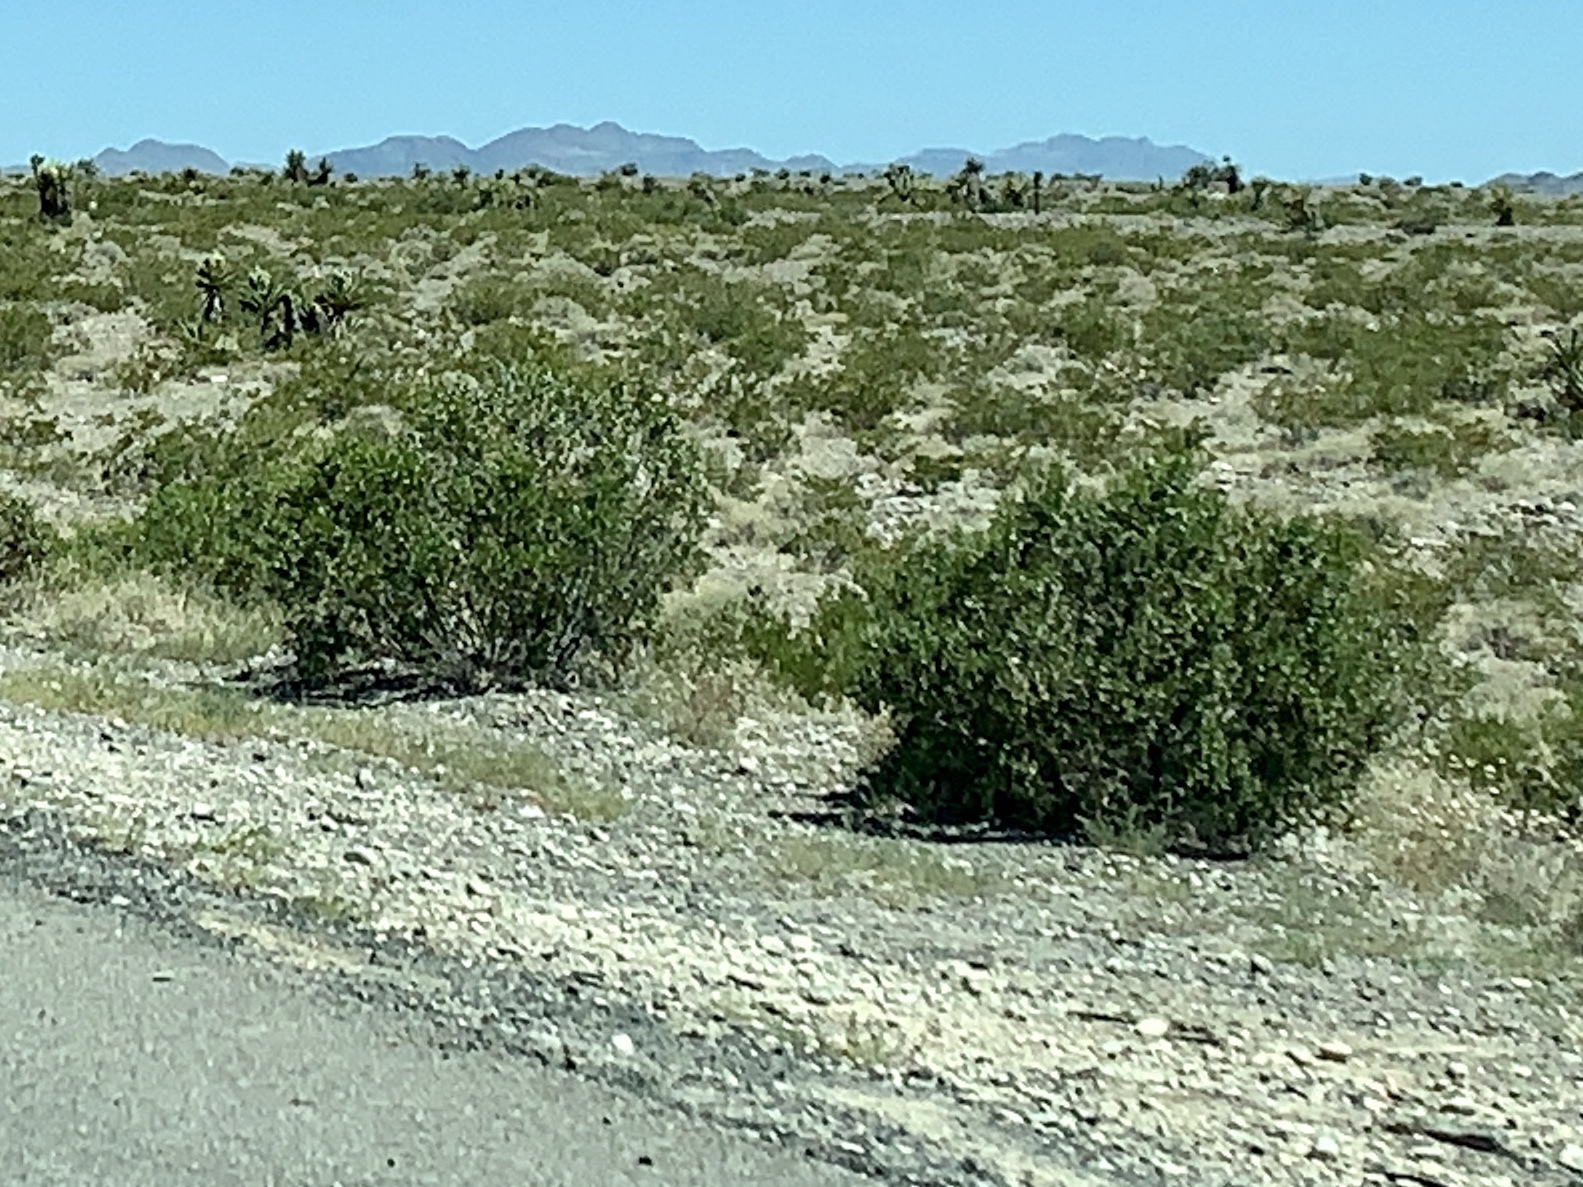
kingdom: Plantae
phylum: Tracheophyta
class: Magnoliopsida
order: Zygophyllales
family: Zygophyllaceae
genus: Larrea
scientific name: Larrea tridentata
